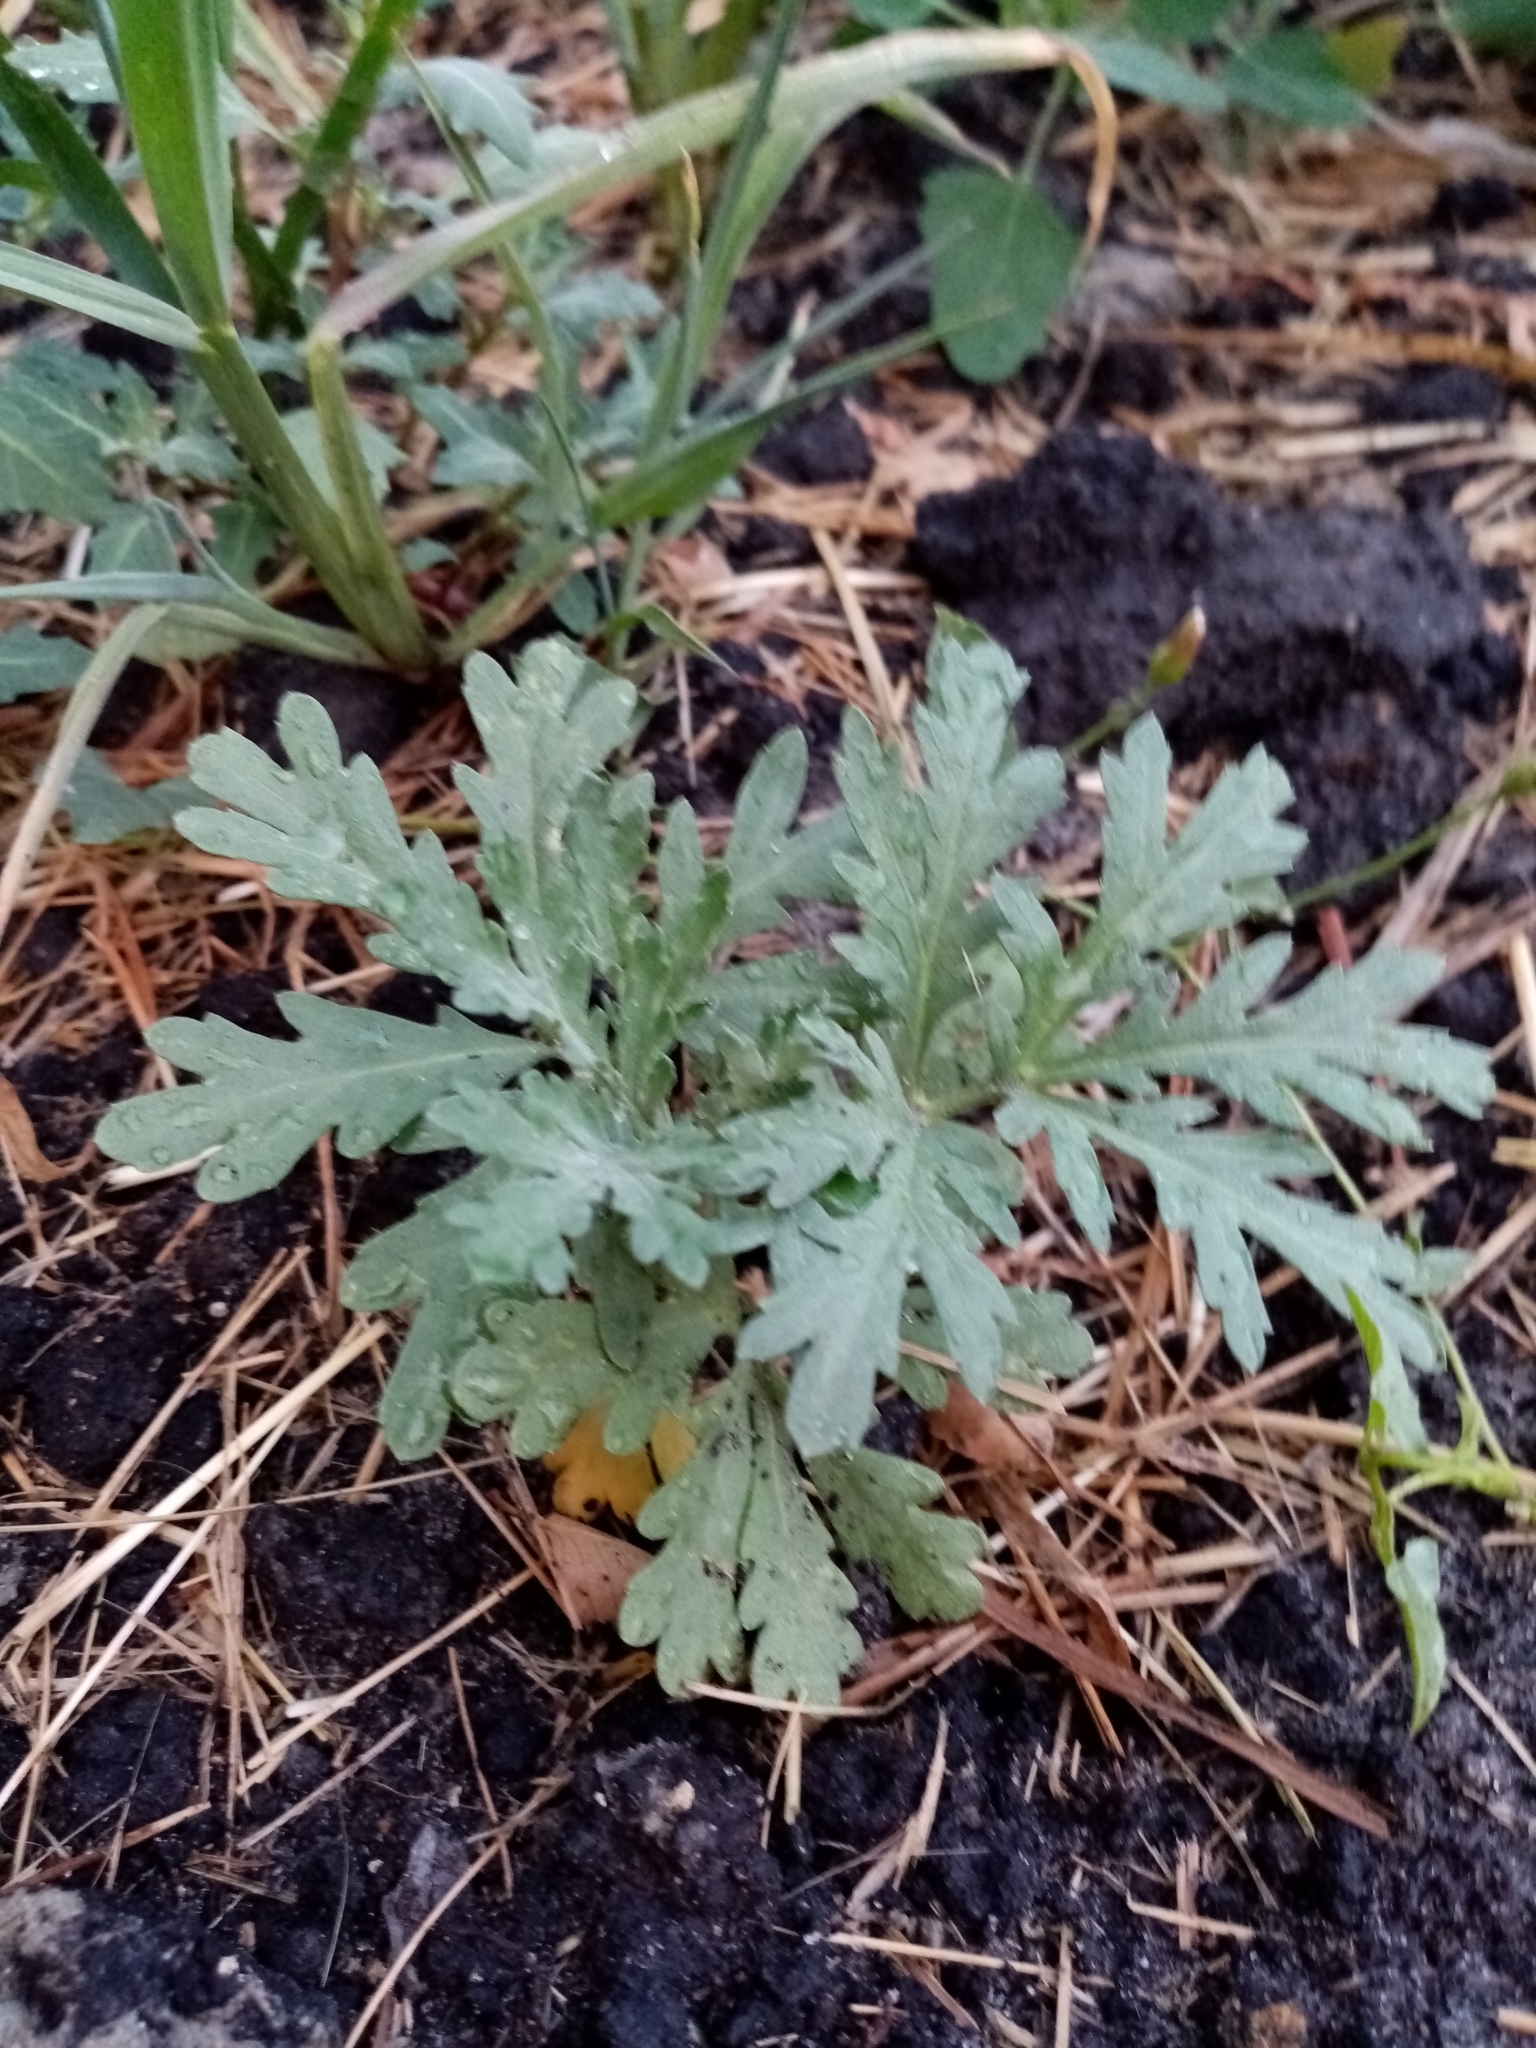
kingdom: Plantae
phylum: Tracheophyta
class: Magnoliopsida
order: Asterales
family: Asteraceae
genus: Artemisia
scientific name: Artemisia sieversiana
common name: Sieversian wormwood
